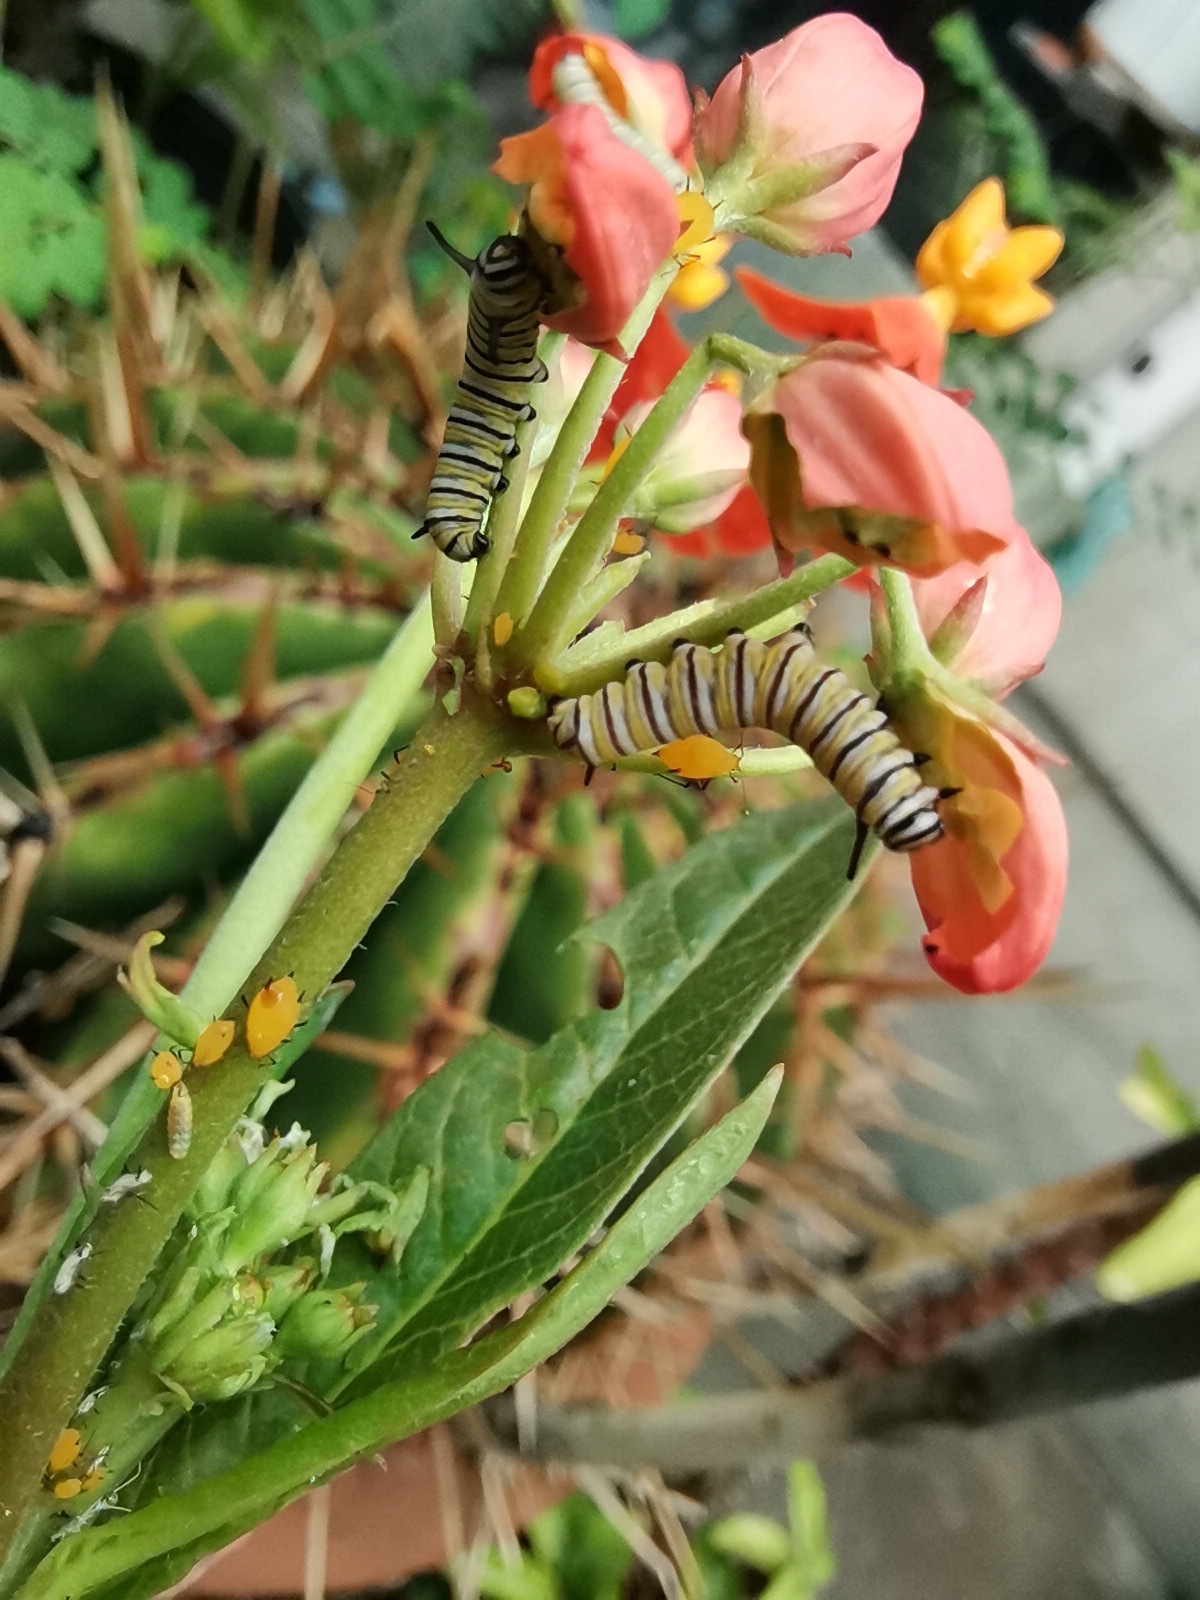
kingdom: Animalia
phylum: Arthropoda
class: Insecta
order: Lepidoptera
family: Nymphalidae
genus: Danaus
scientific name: Danaus plexippus
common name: Monarch
